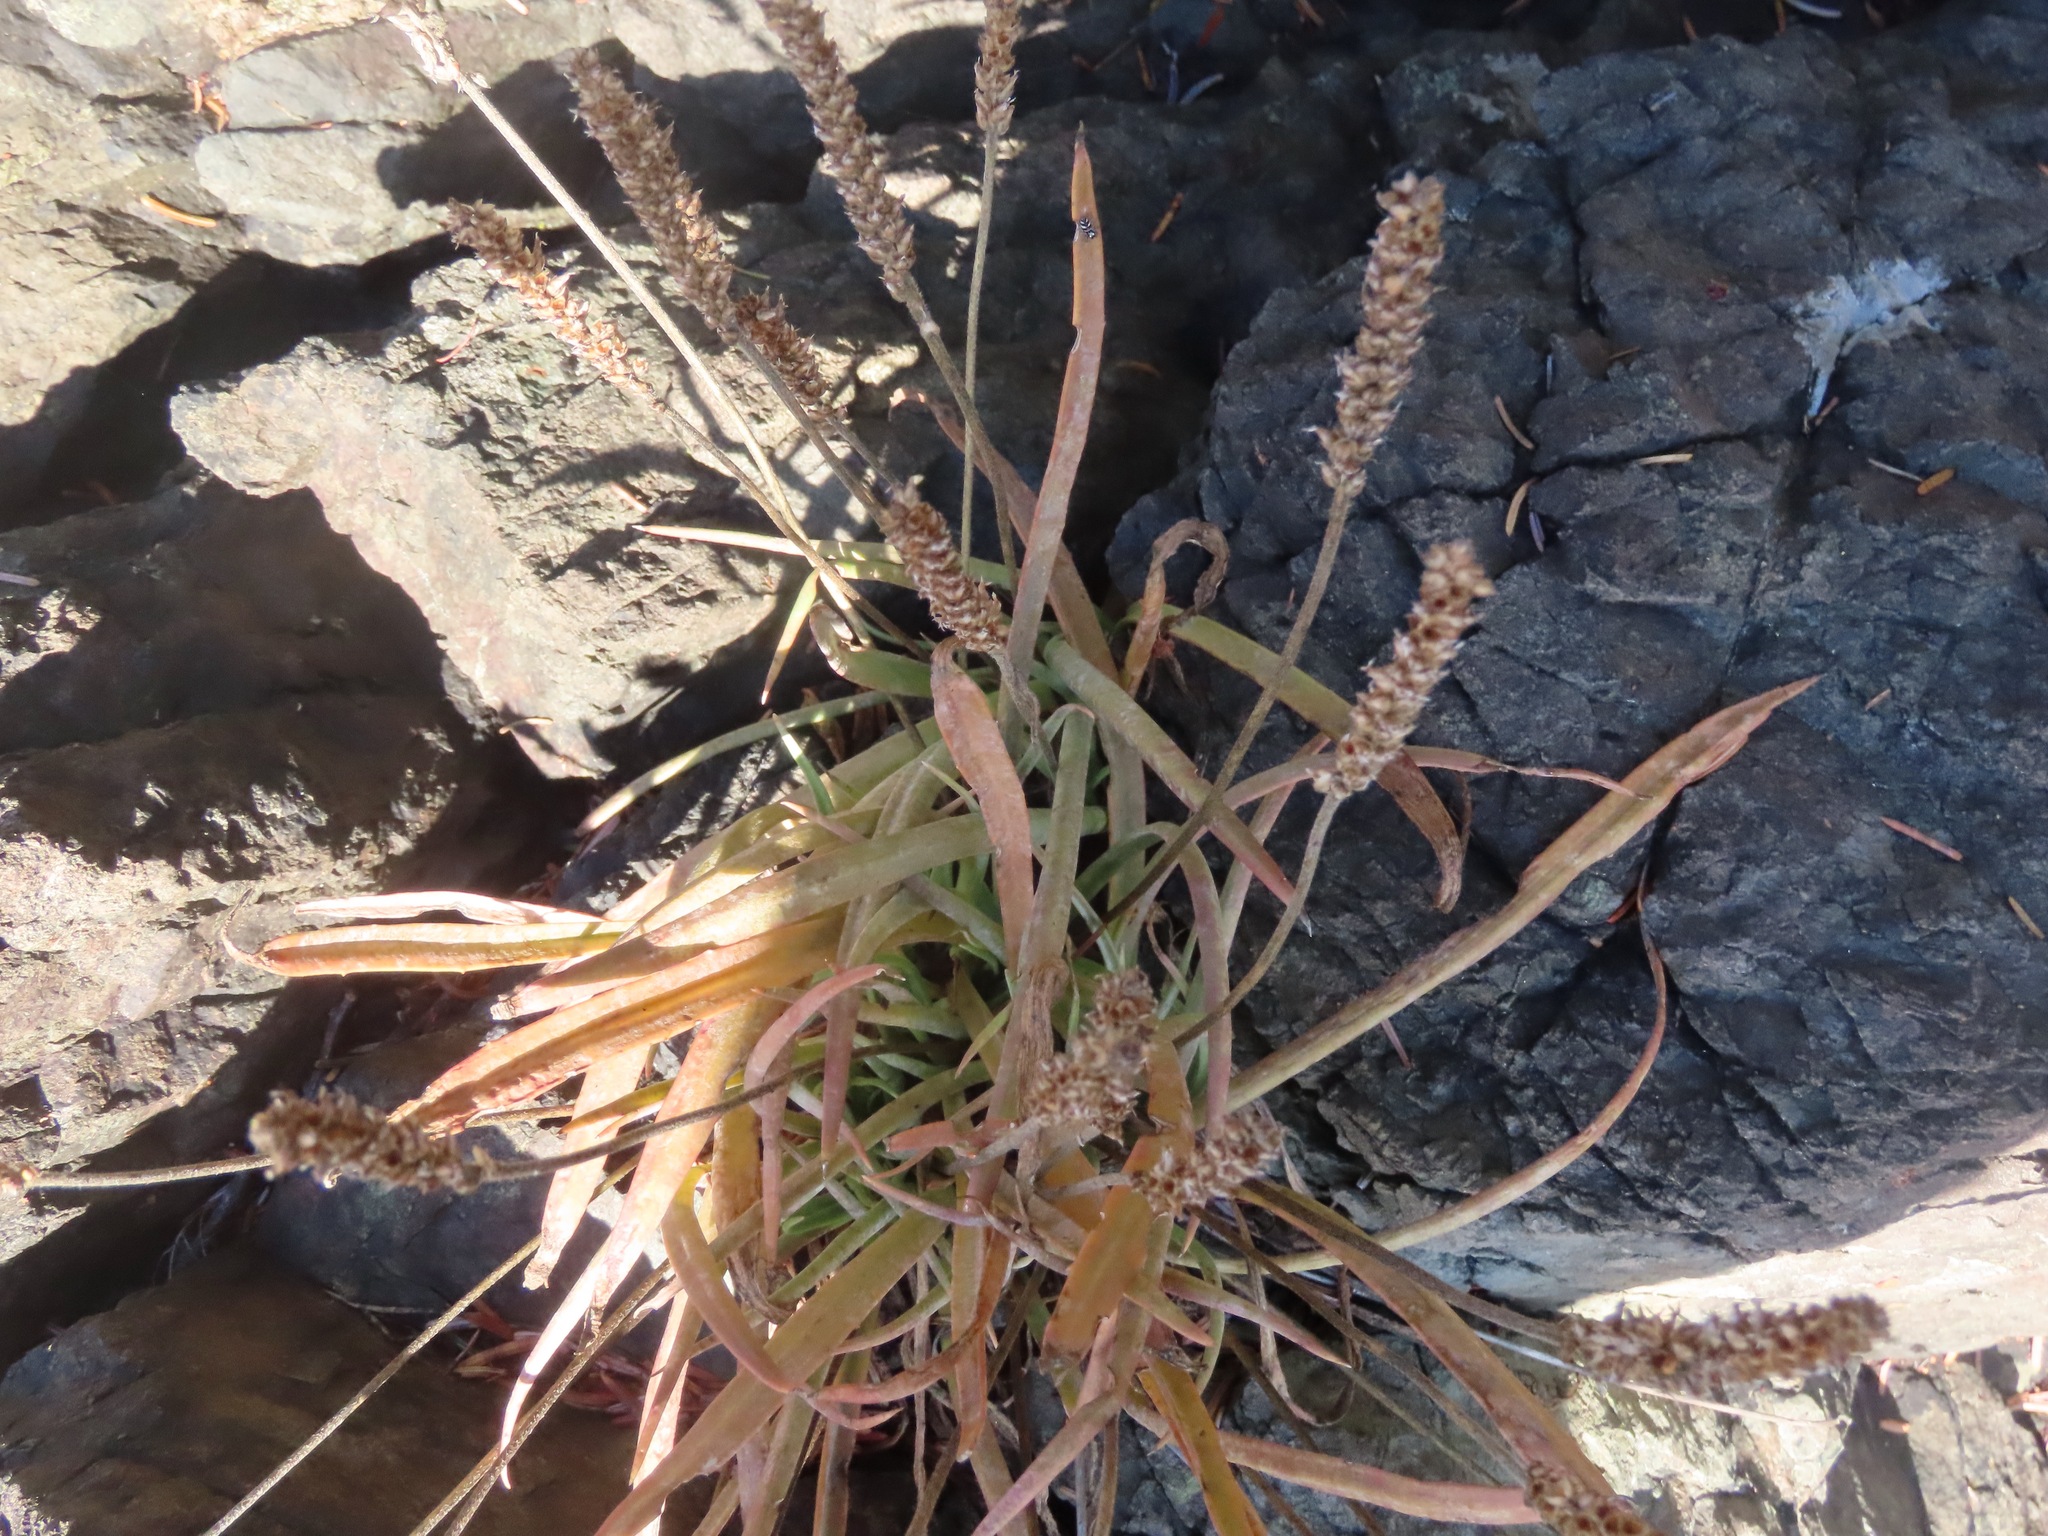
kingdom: Plantae
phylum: Tracheophyta
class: Magnoliopsida
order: Lamiales
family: Plantaginaceae
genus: Plantago
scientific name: Plantago maritima
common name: Sea plantain
